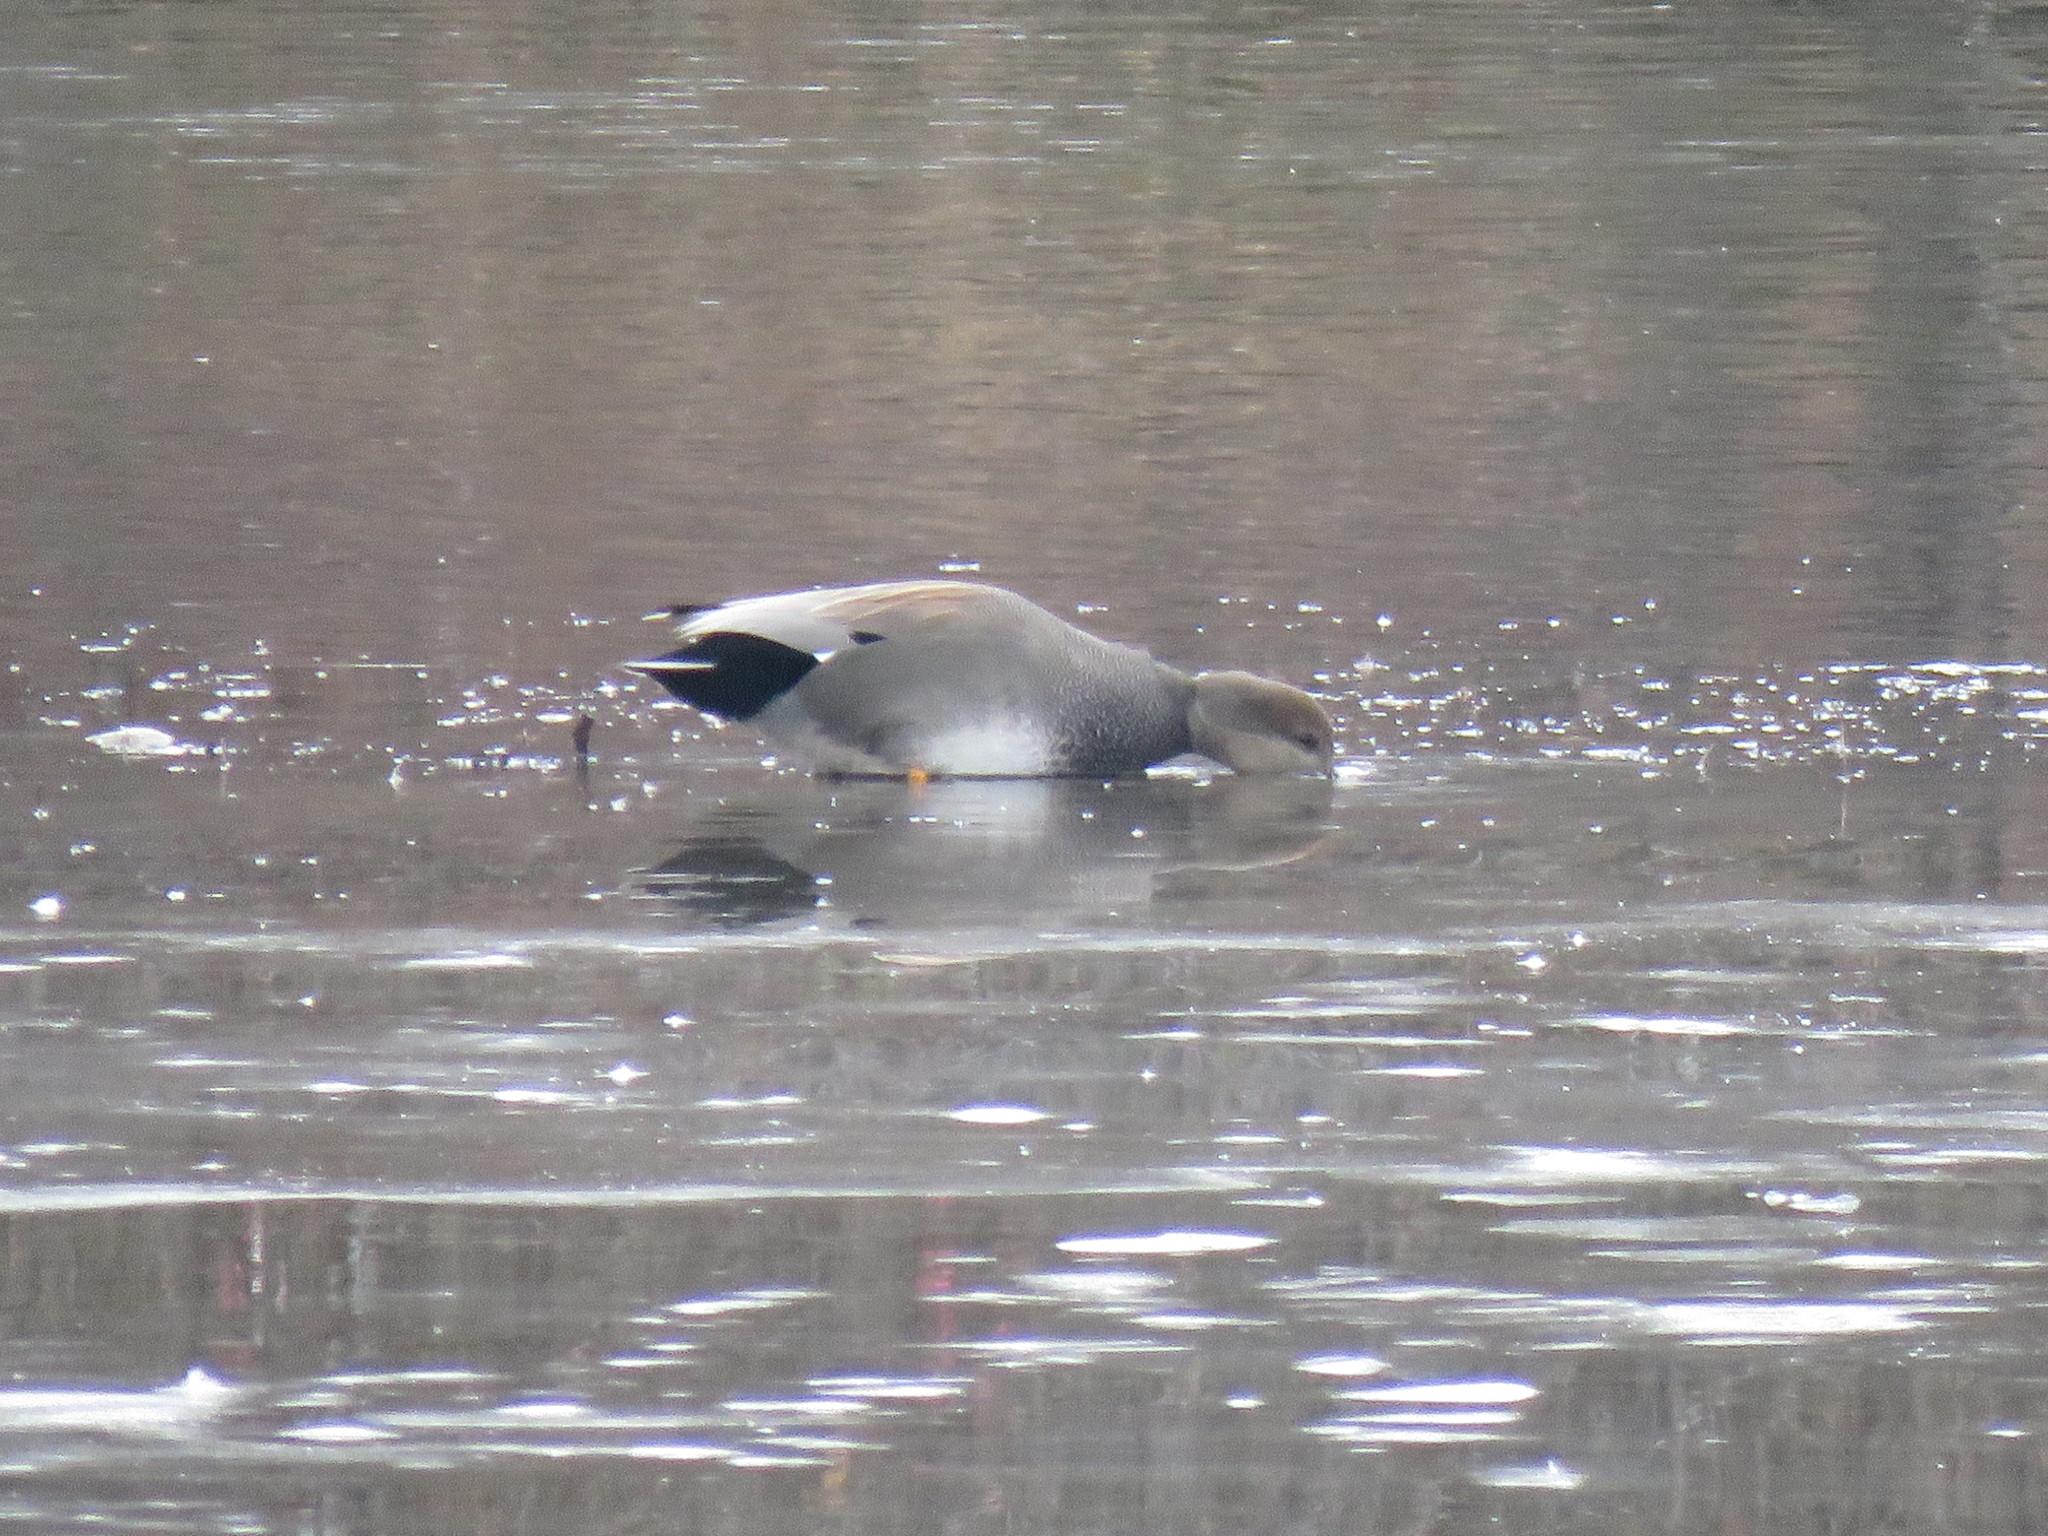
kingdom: Animalia
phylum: Chordata
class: Aves
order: Anseriformes
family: Anatidae
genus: Mareca
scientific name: Mareca strepera
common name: Gadwall
